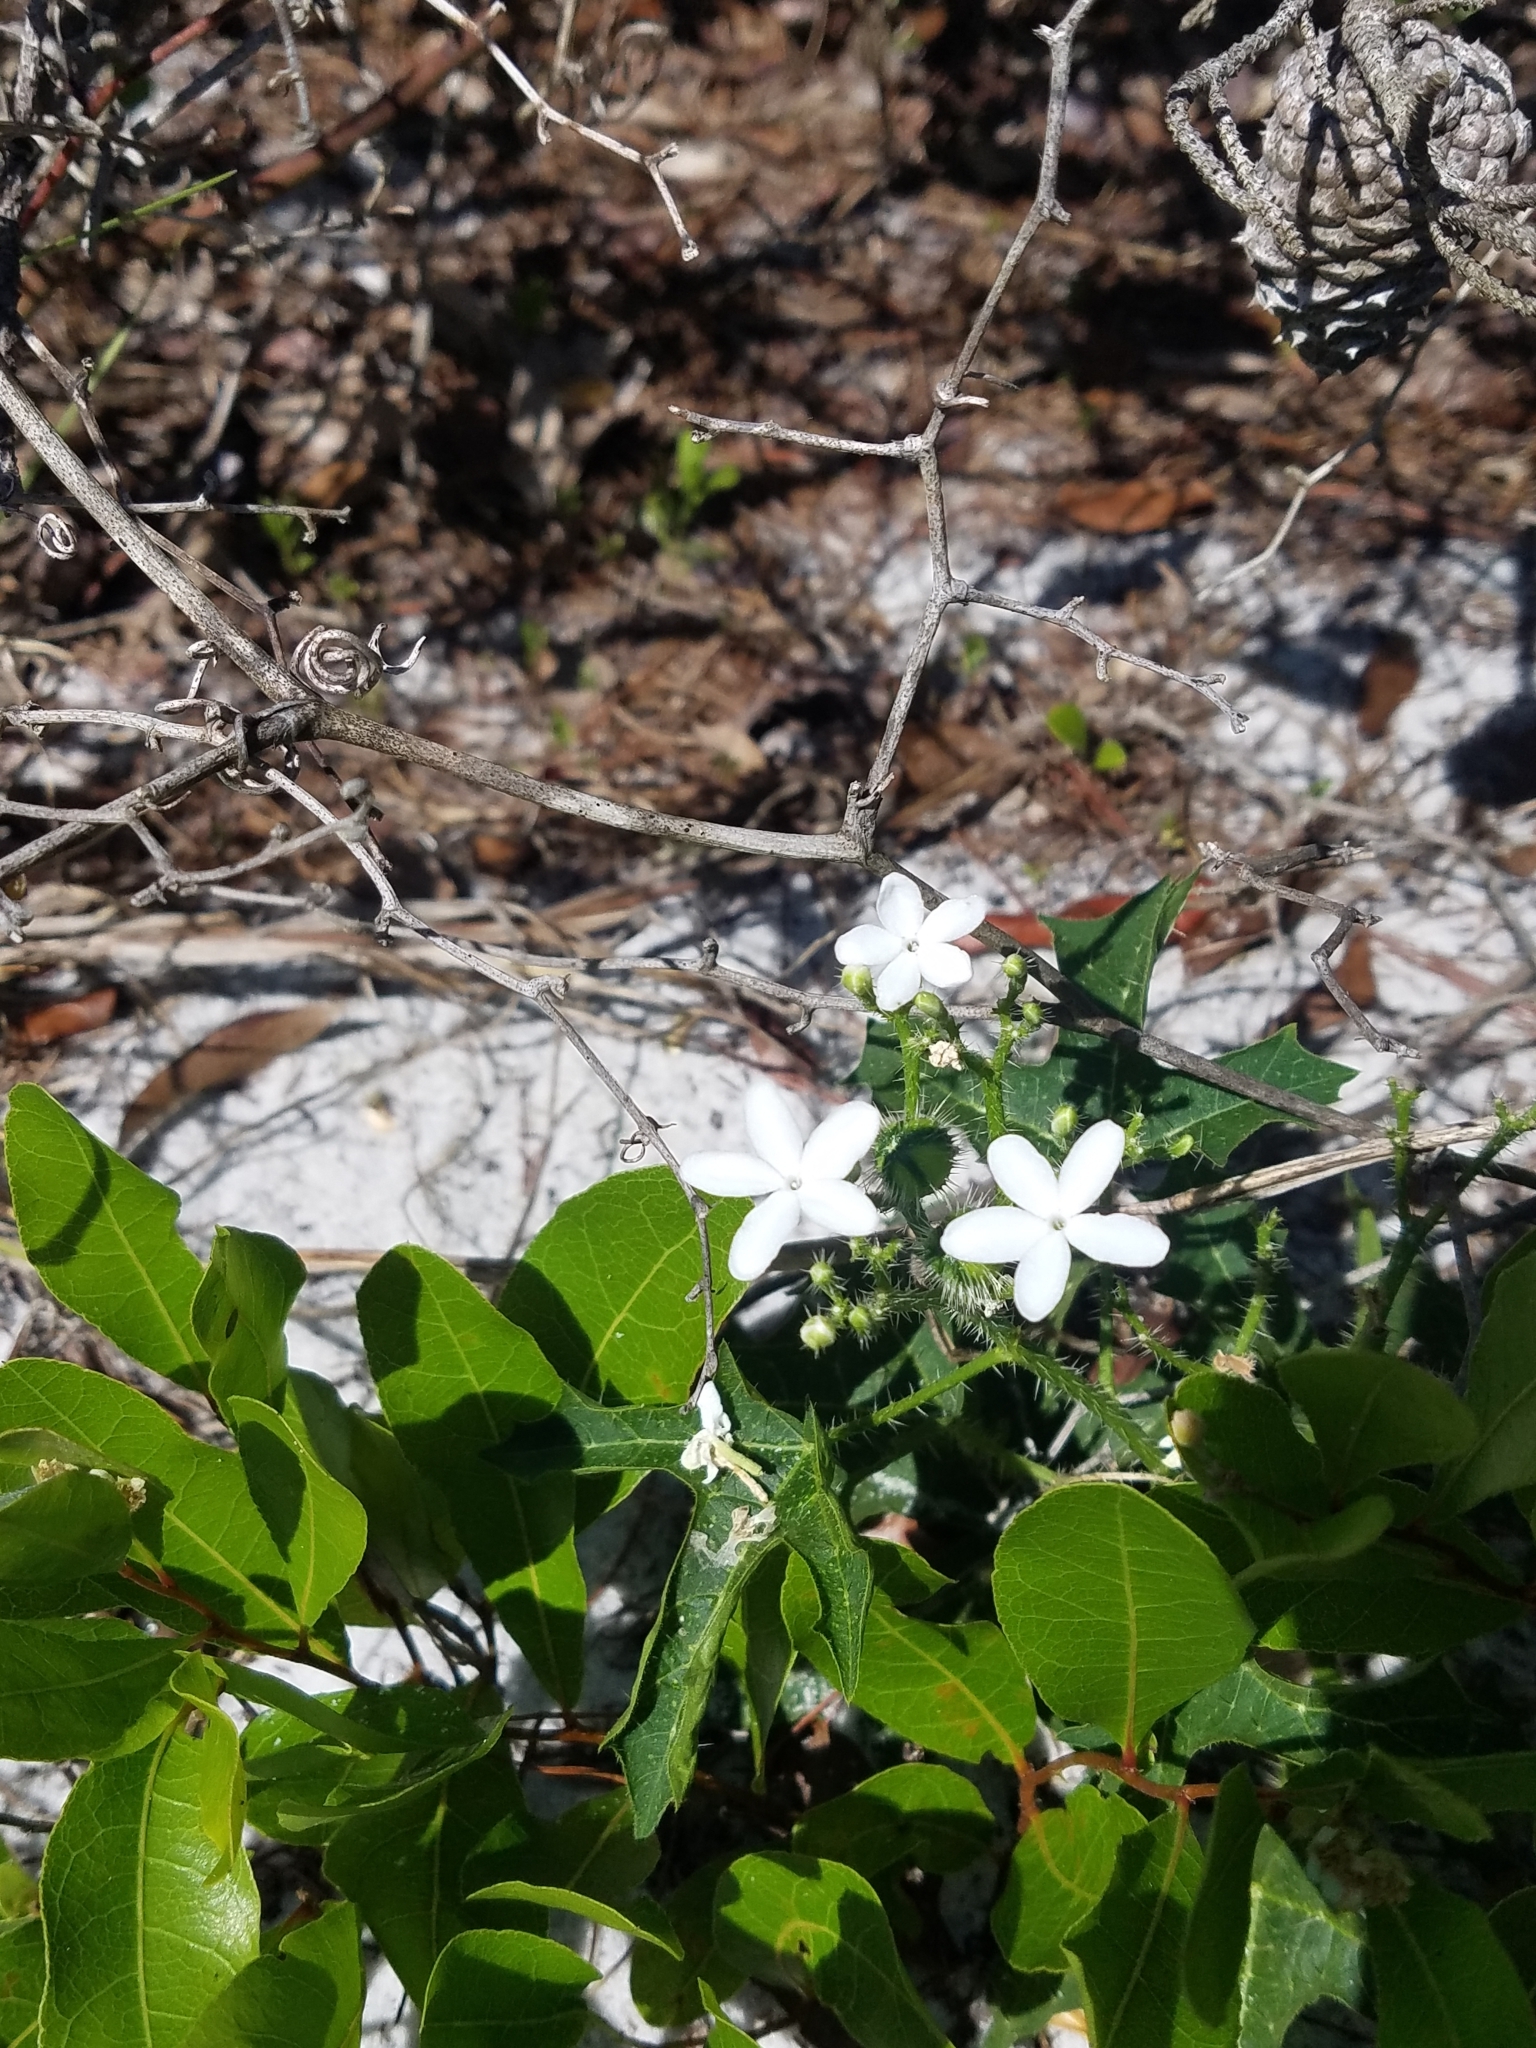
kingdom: Plantae
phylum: Tracheophyta
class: Magnoliopsida
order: Malpighiales
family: Euphorbiaceae
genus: Cnidoscolus
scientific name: Cnidoscolus stimulosus
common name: Bull-nettle
